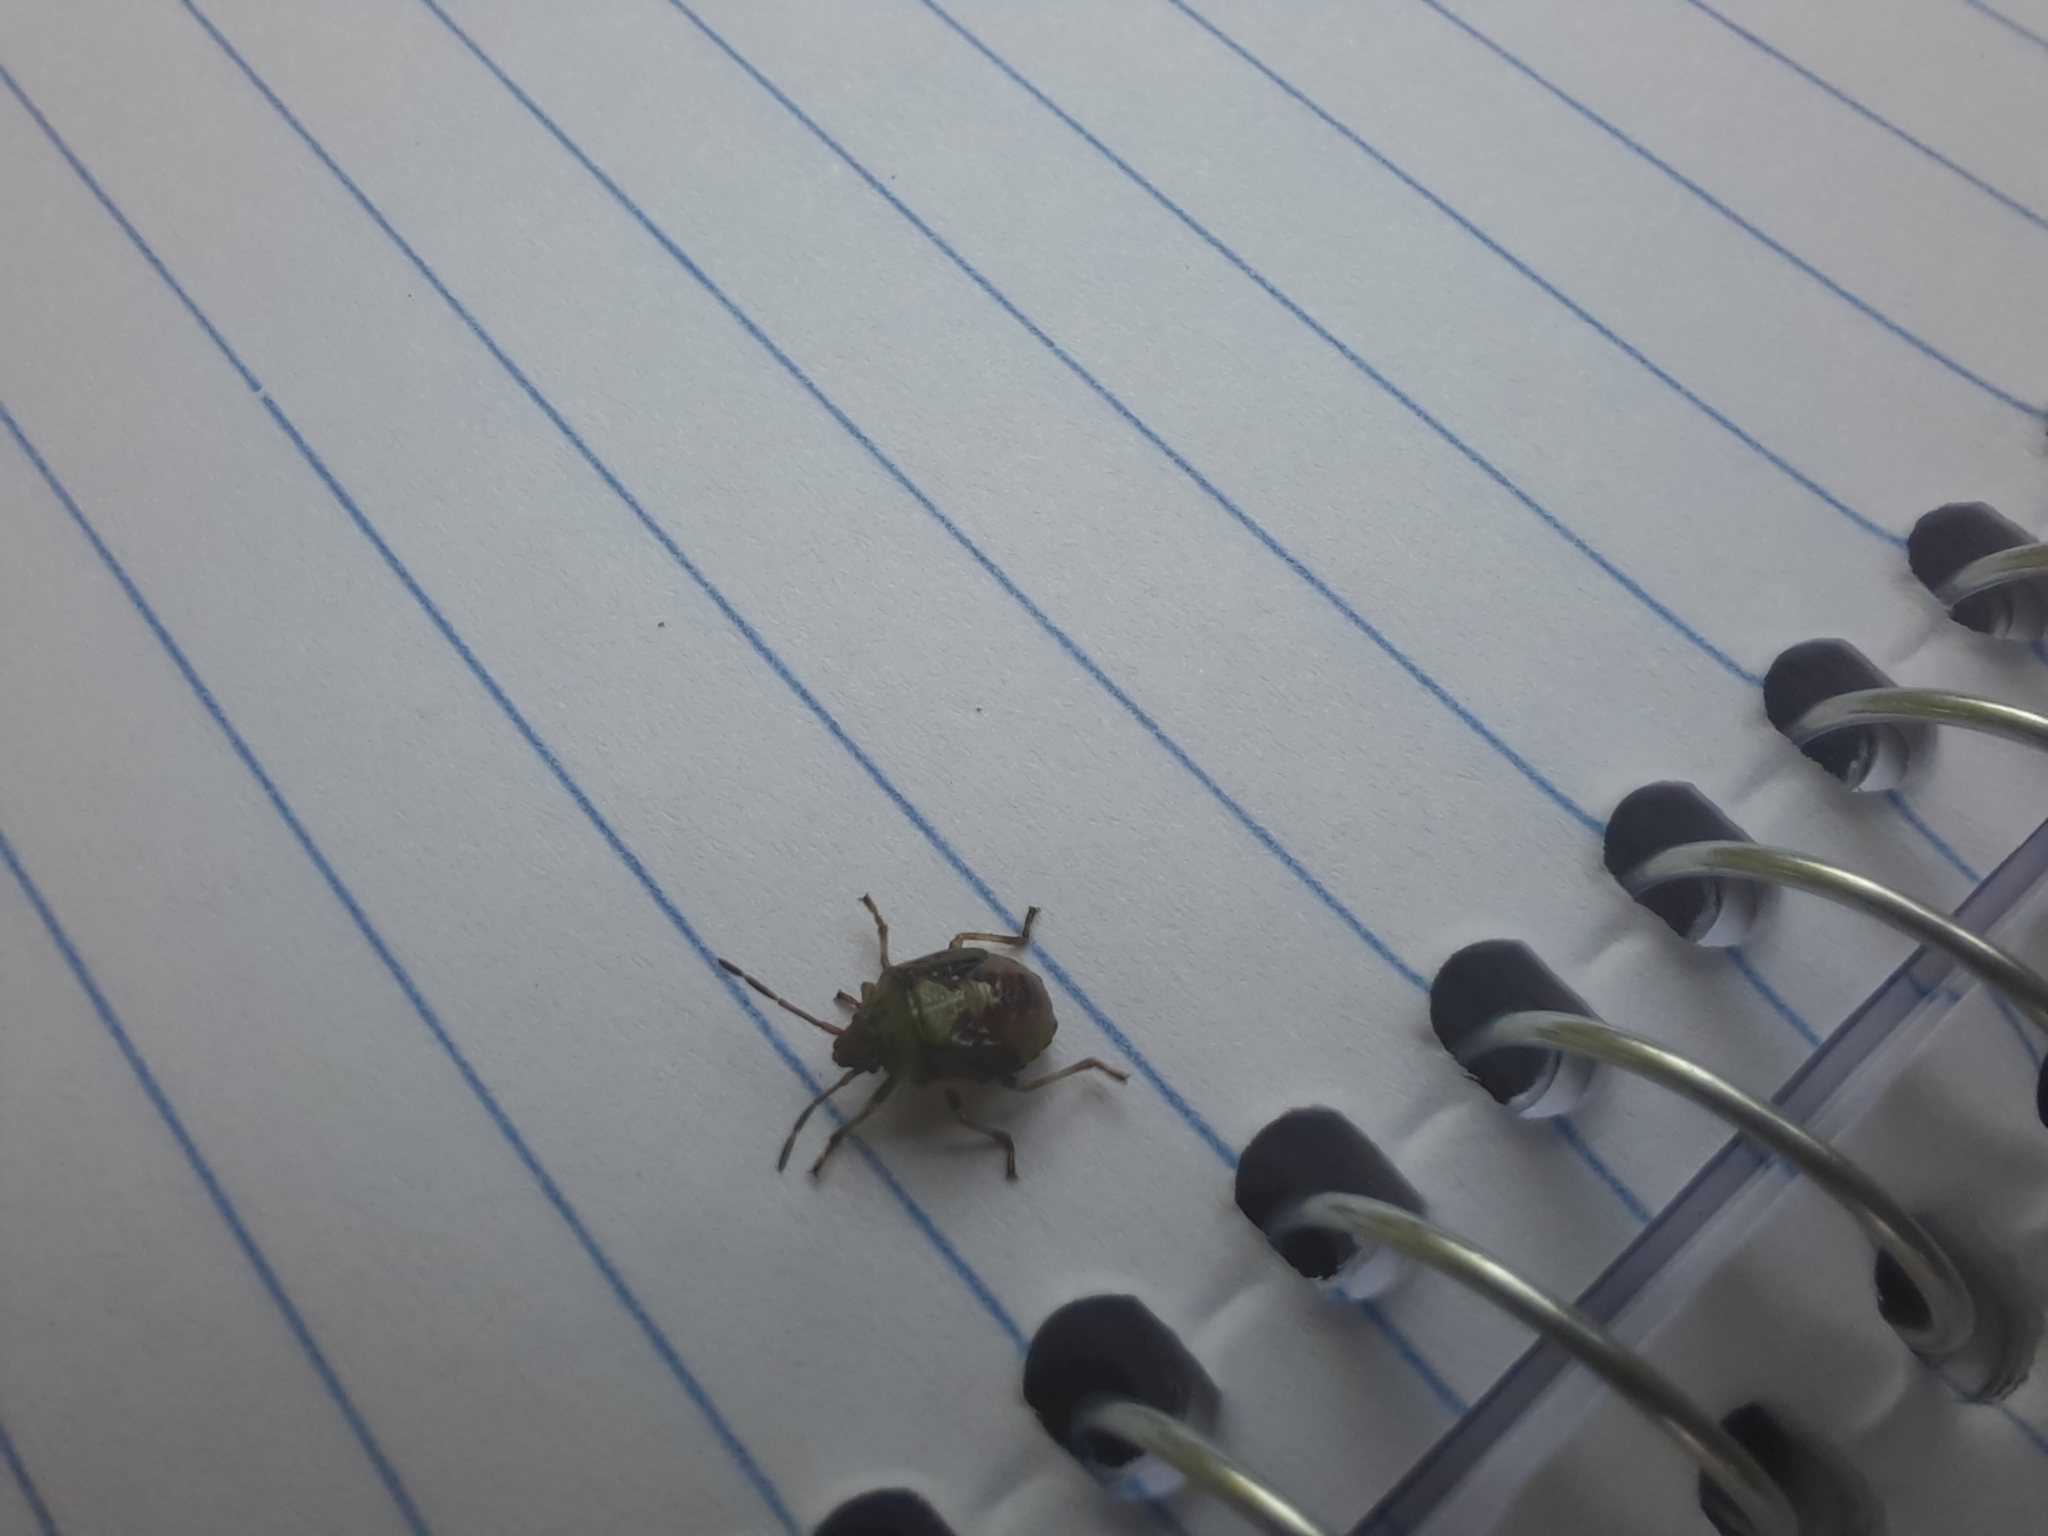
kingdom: Animalia
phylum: Arthropoda
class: Insecta
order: Hemiptera
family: Acanthosomatidae
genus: Elasmostethus
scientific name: Elasmostethus interstinctus
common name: Birch shieldbug
